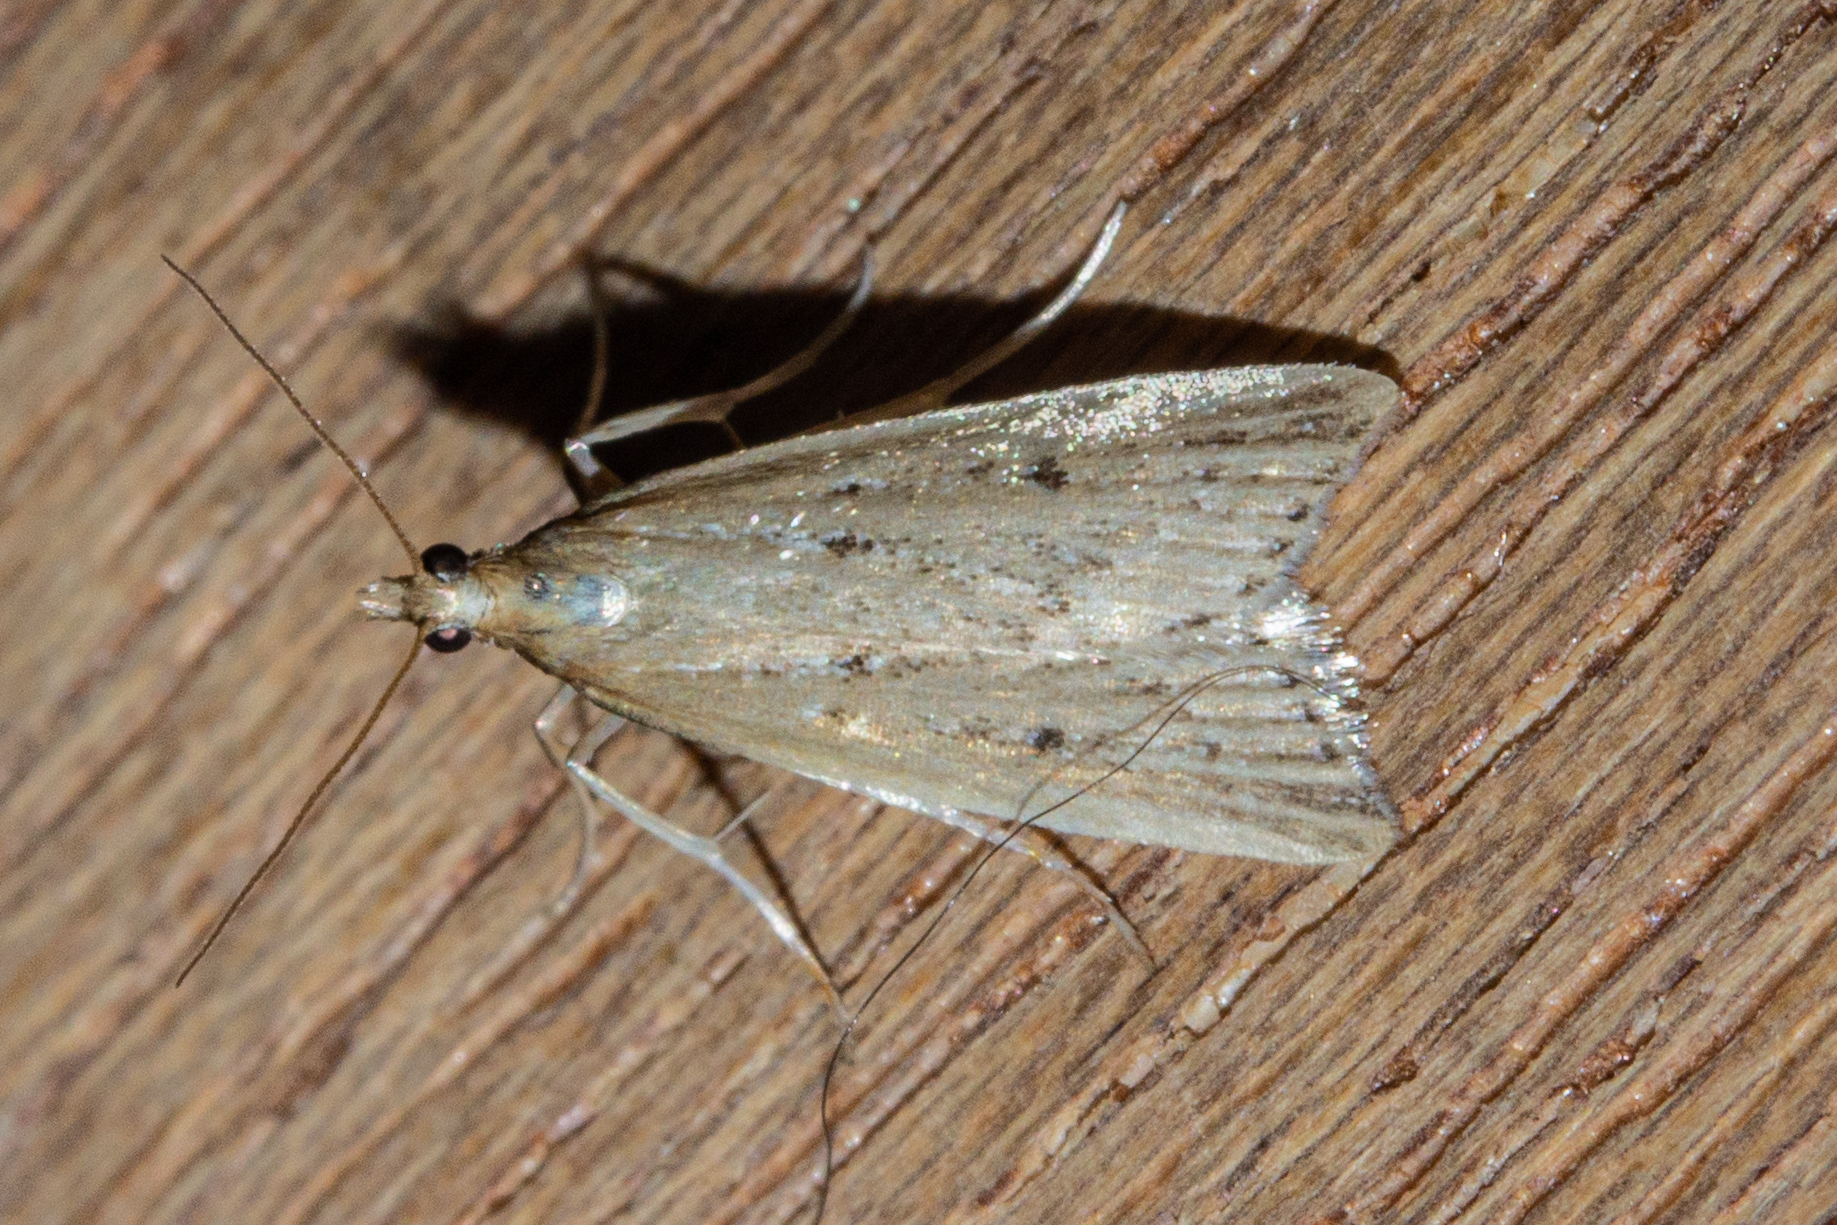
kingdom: Animalia
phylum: Arthropoda
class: Insecta
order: Lepidoptera
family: Crambidae
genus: Antiscopa
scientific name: Antiscopa elaphra
